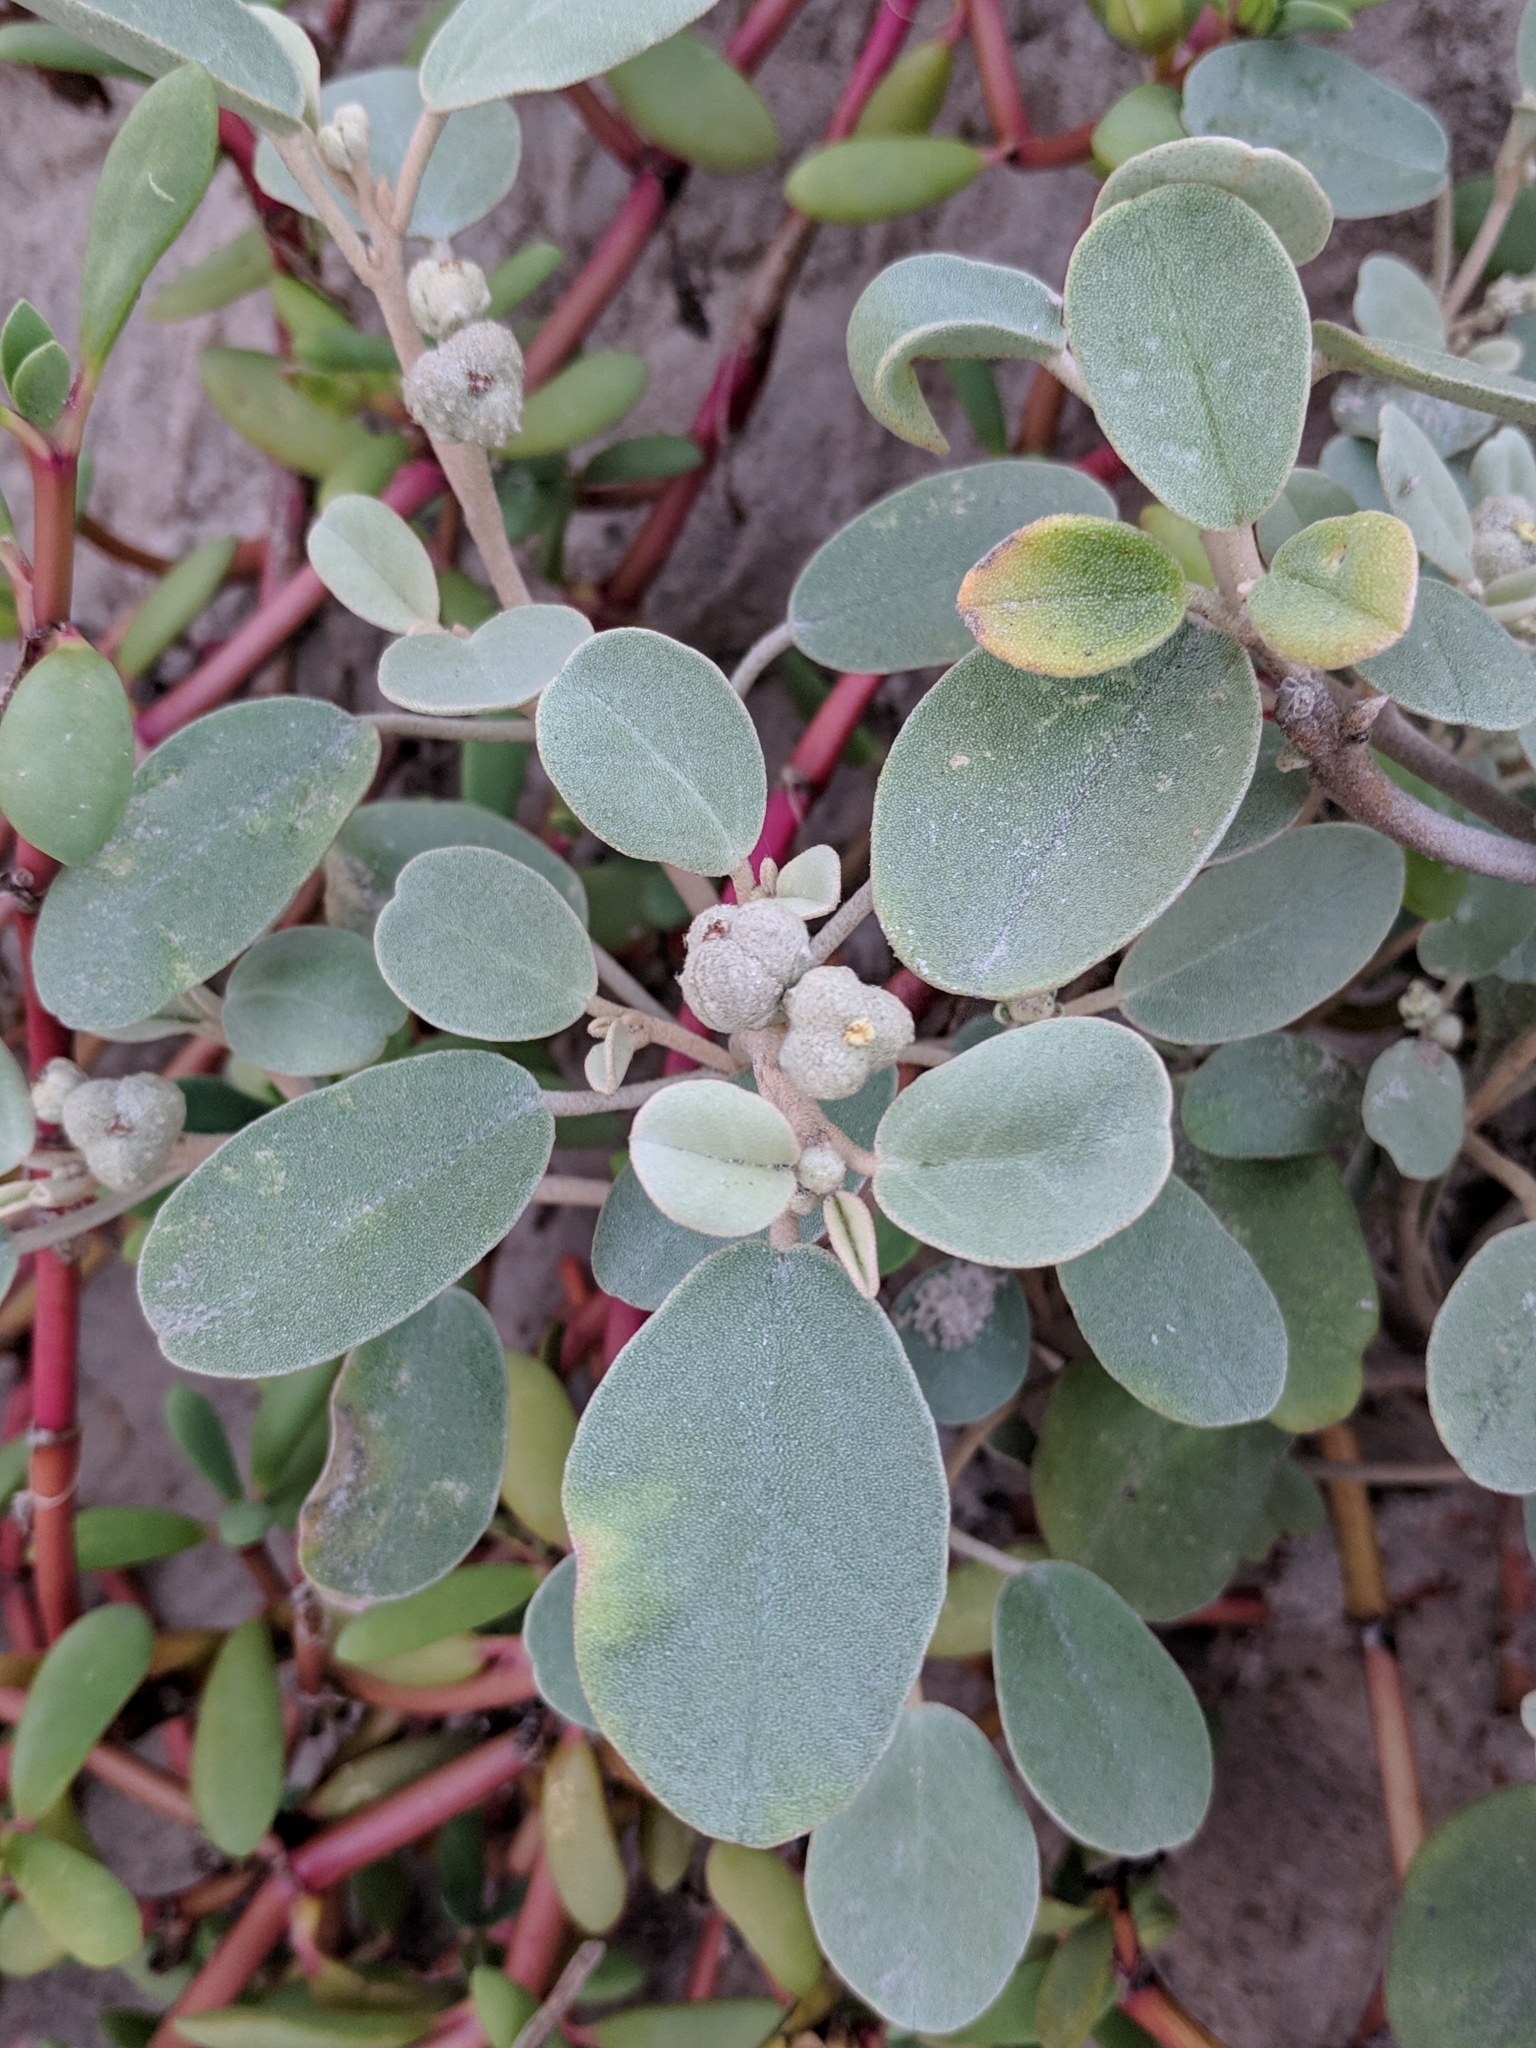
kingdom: Plantae
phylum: Tracheophyta
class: Magnoliopsida
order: Malpighiales
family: Euphorbiaceae
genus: Croton
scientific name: Croton punctatus
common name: Beach-tea
